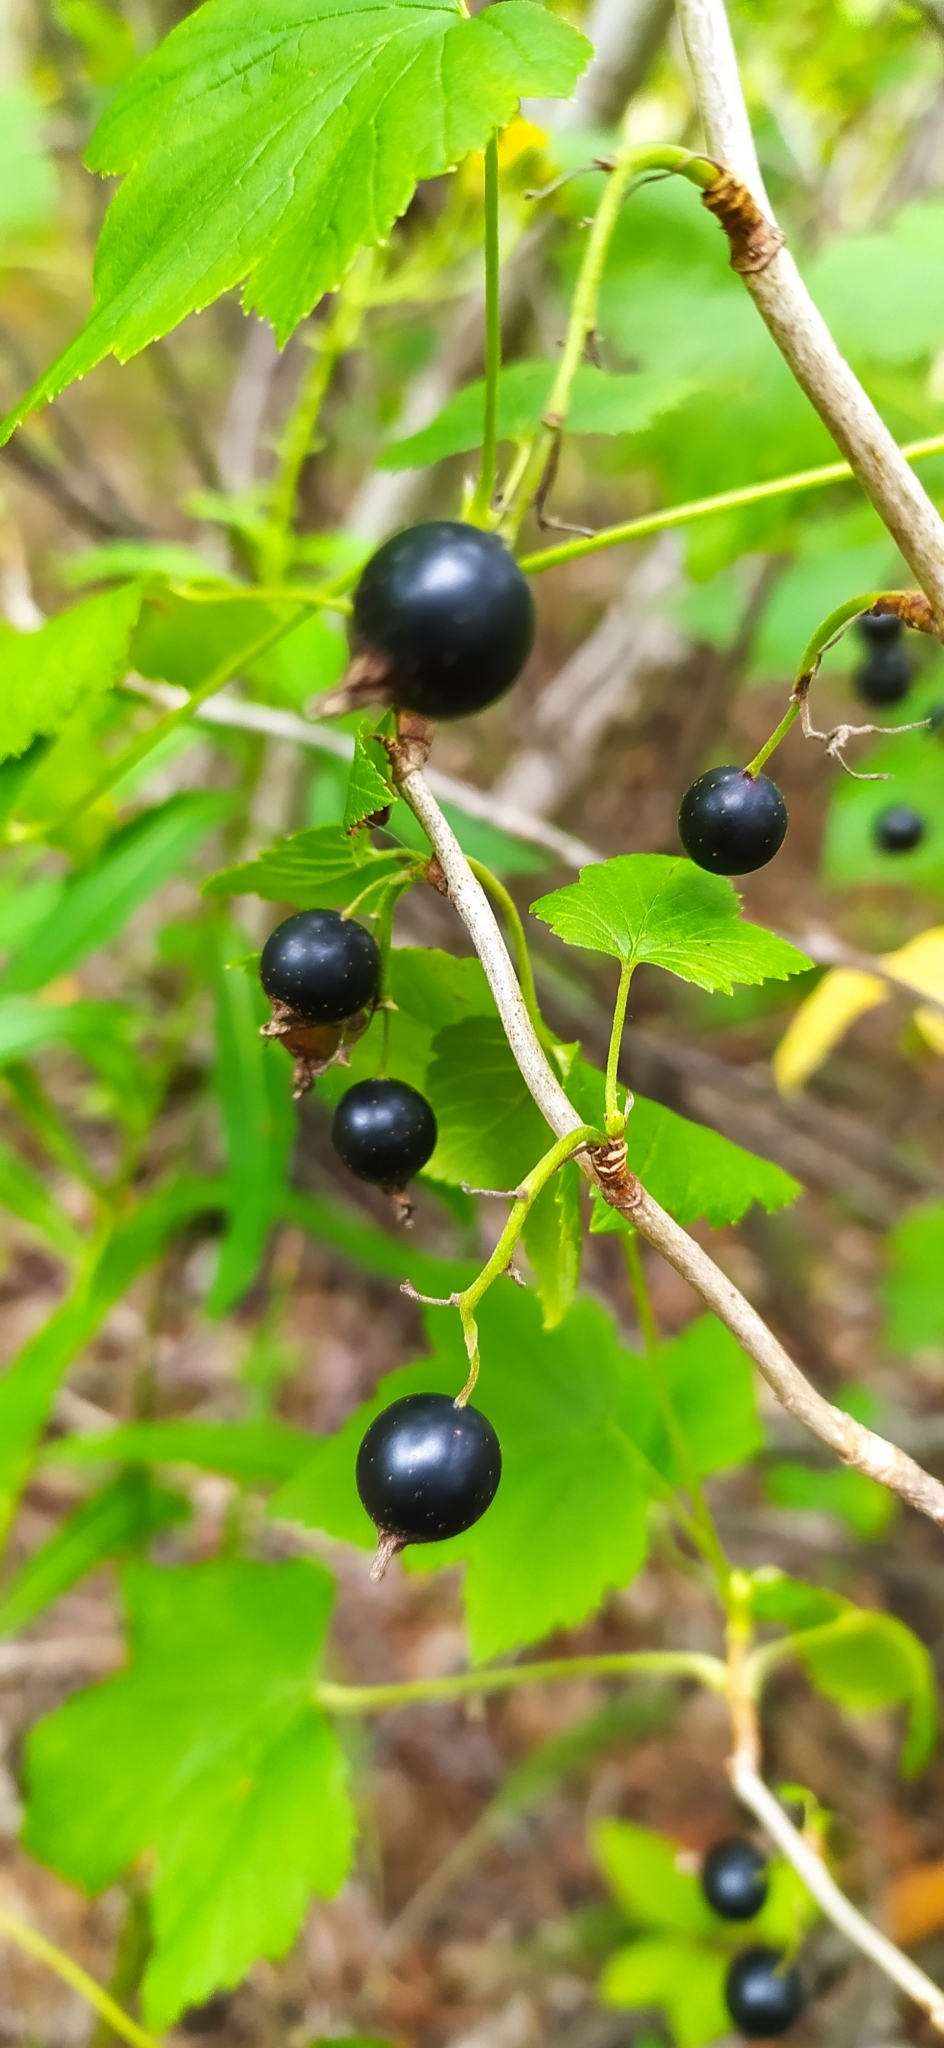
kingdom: Plantae
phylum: Tracheophyta
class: Magnoliopsida
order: Saxifragales
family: Grossulariaceae
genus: Ribes
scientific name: Ribes nigrum
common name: Black currant
